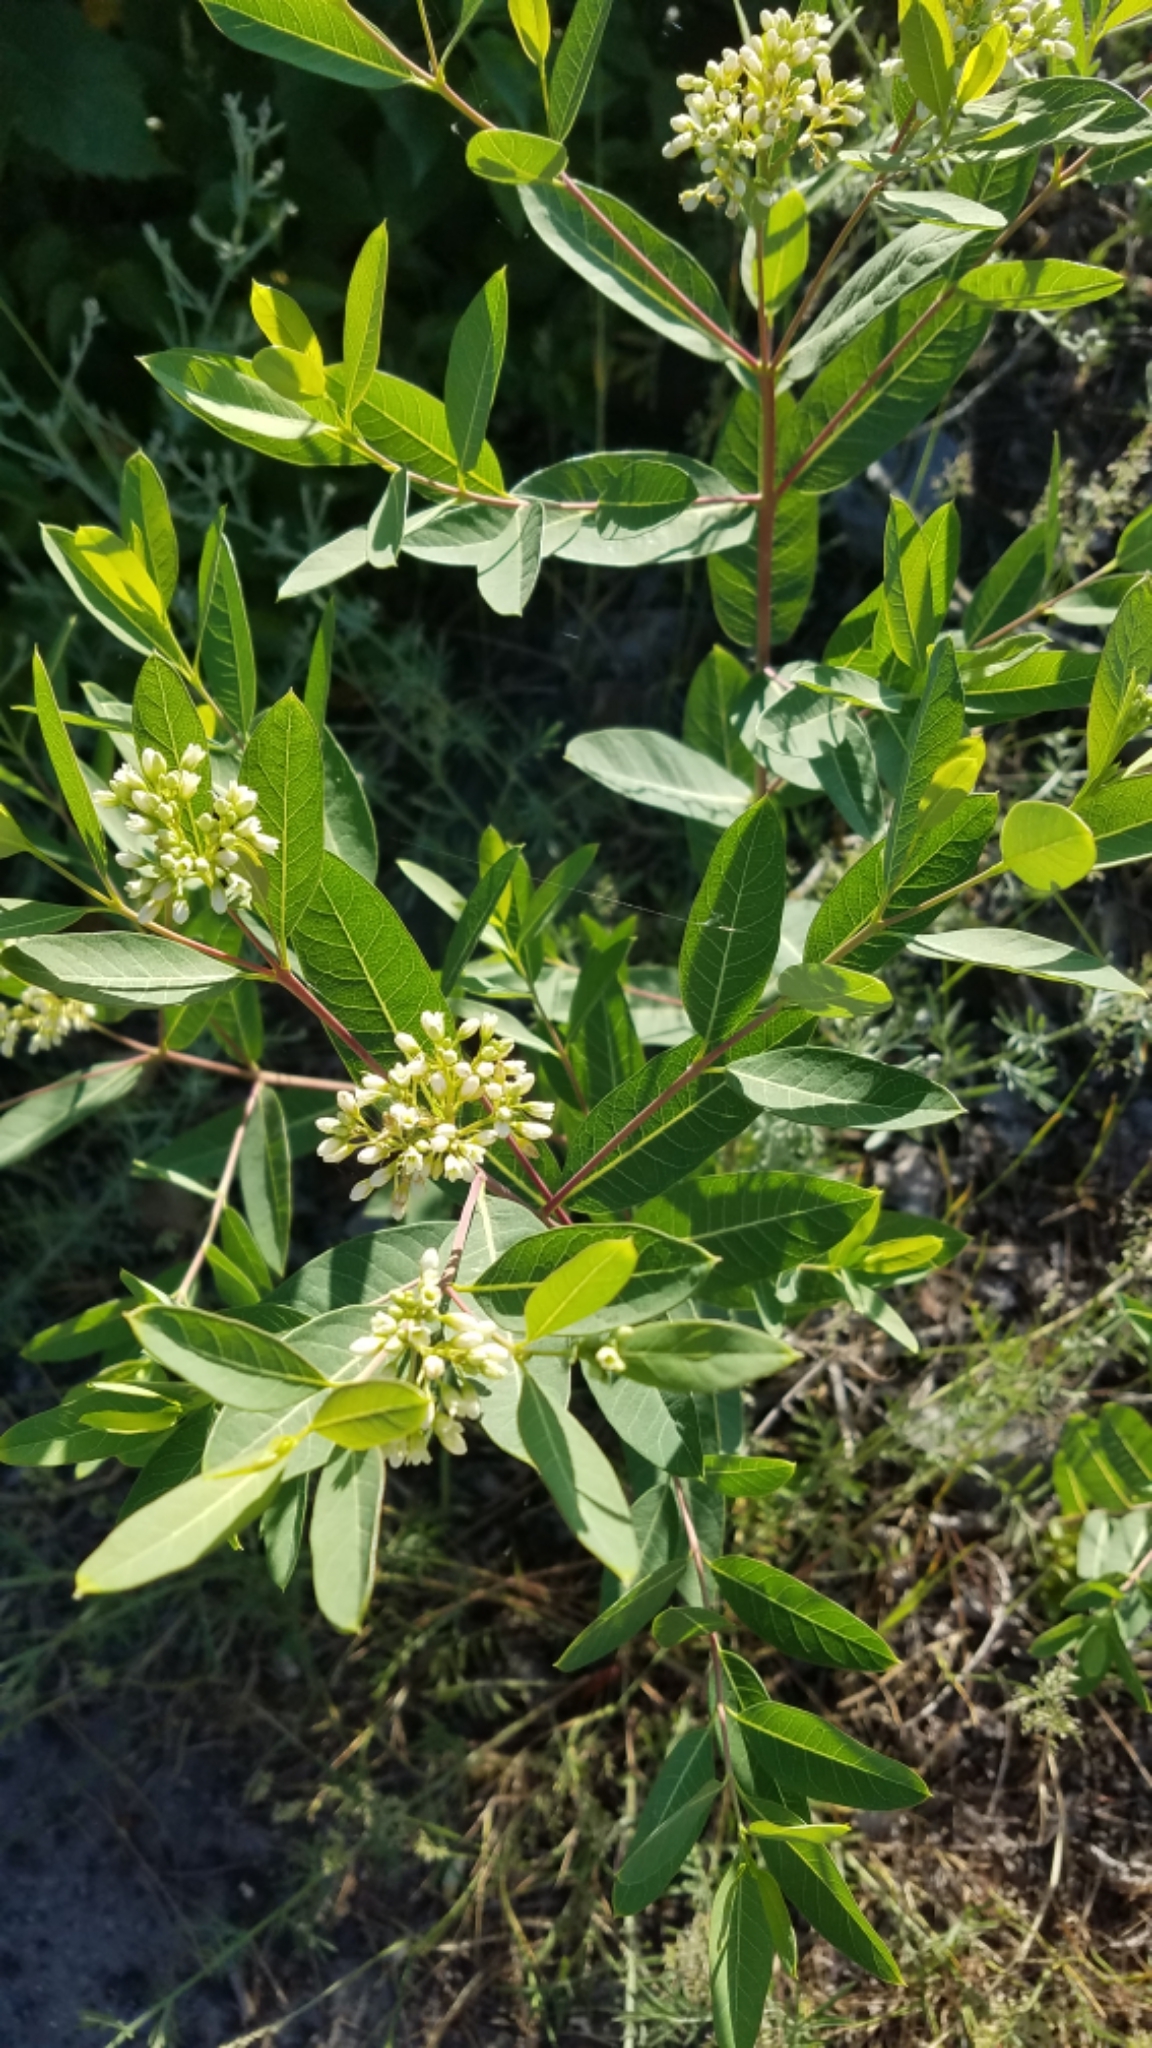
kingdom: Plantae
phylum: Tracheophyta
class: Magnoliopsida
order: Gentianales
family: Apocynaceae
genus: Apocynum
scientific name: Apocynum androsaemifolium
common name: Spreading dogbane
